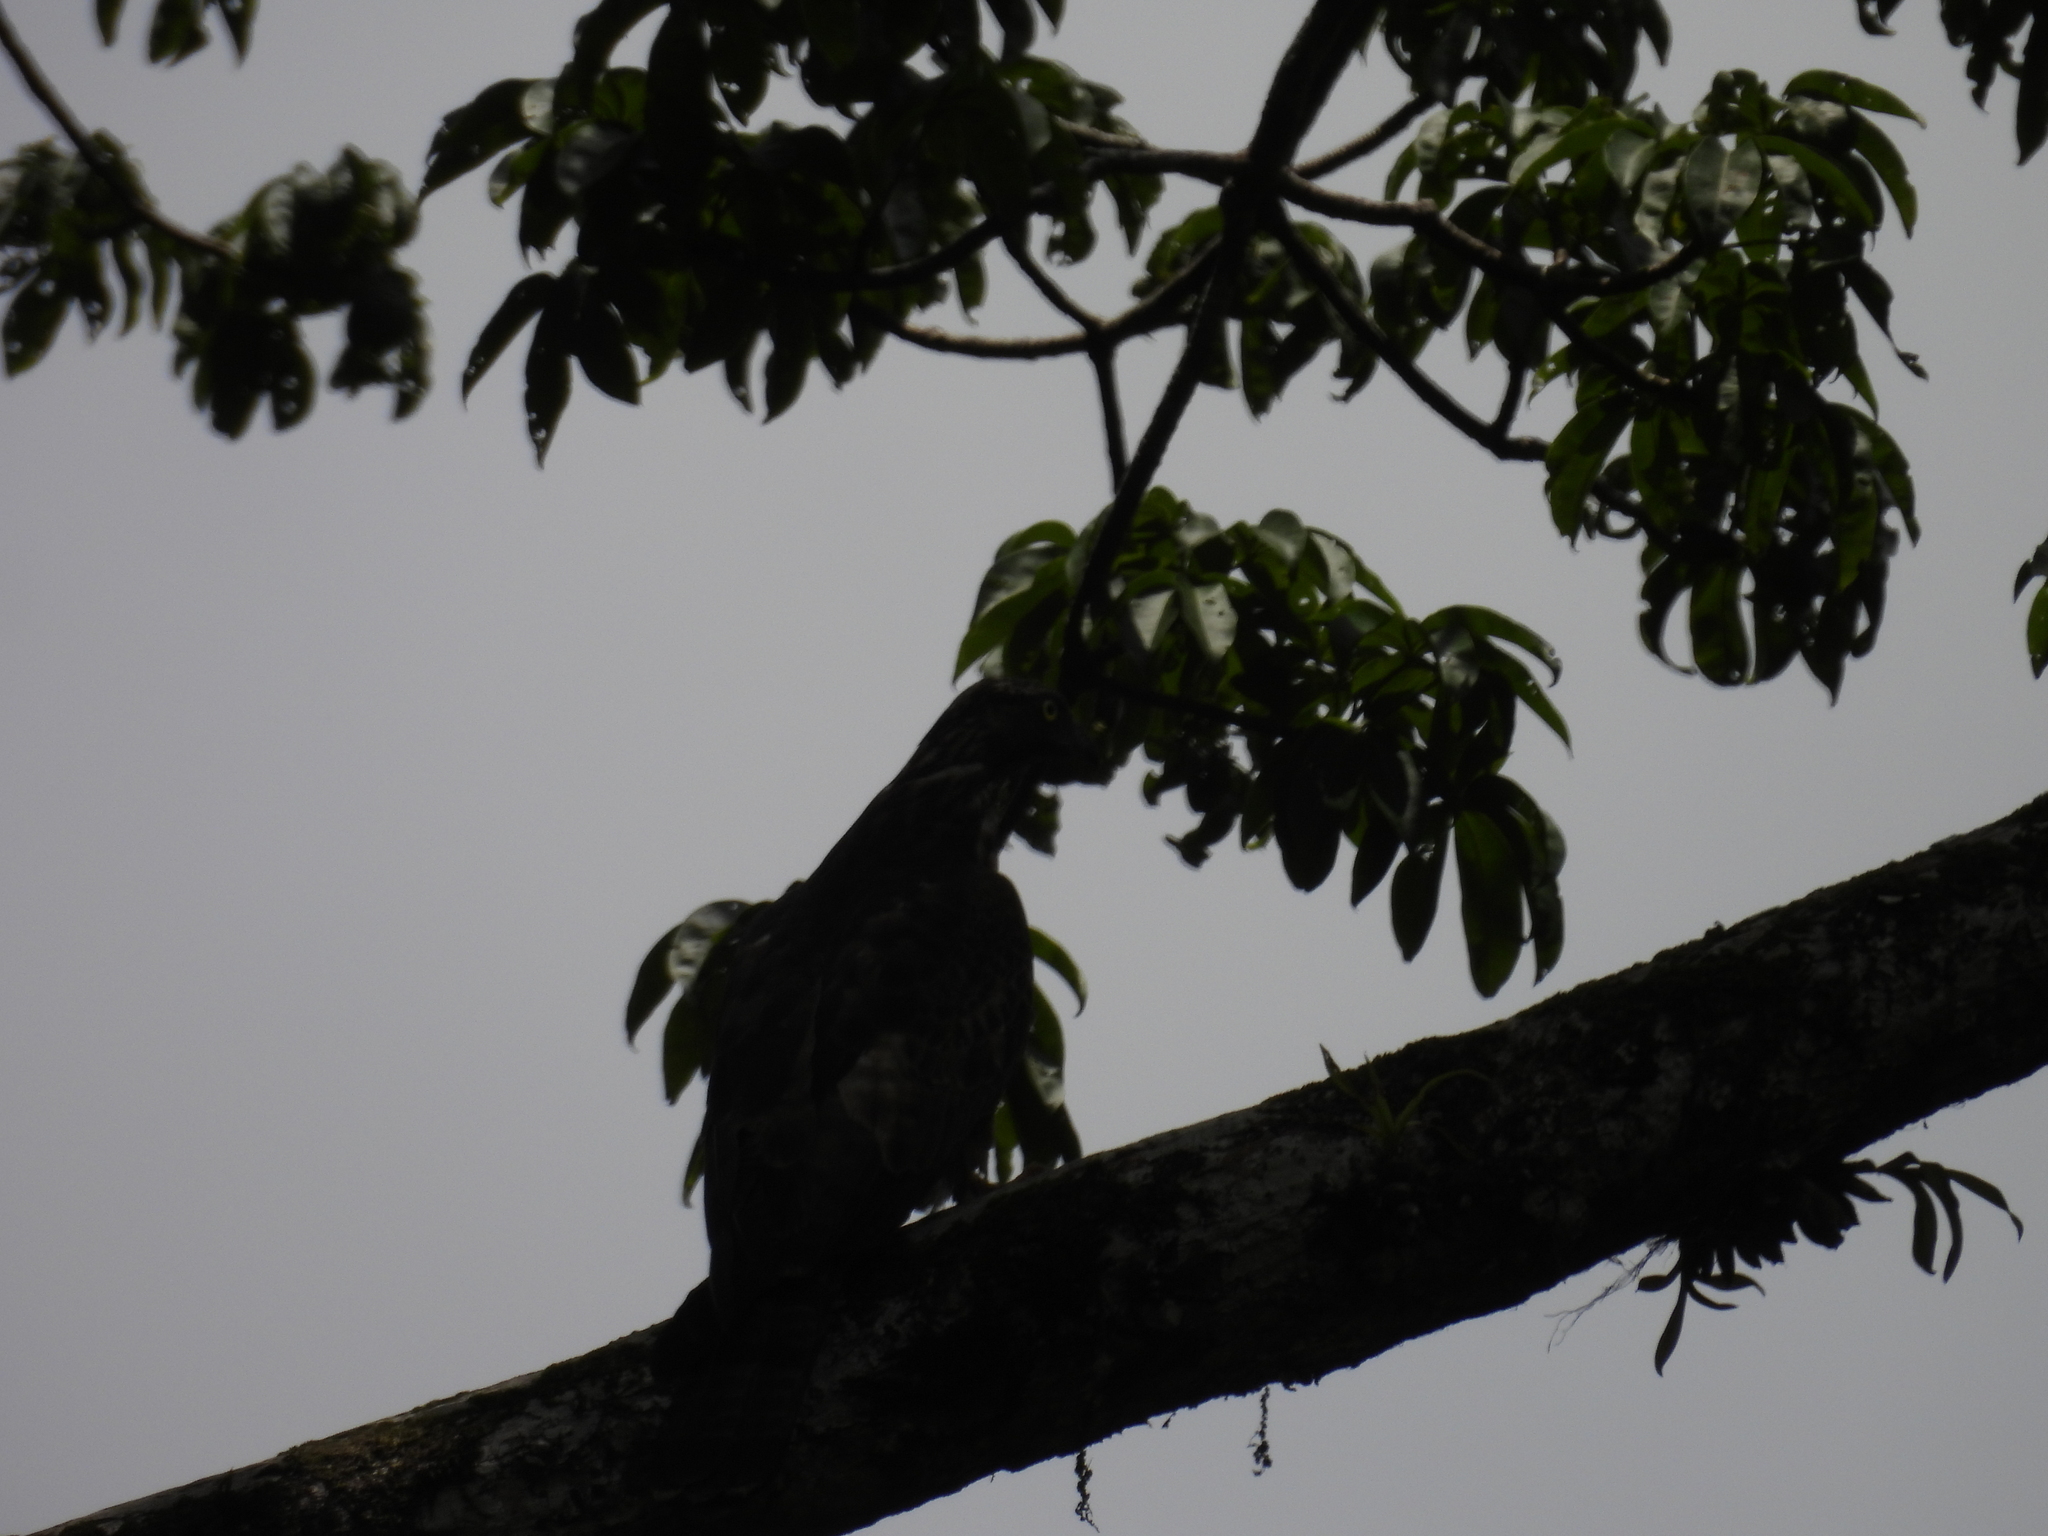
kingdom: Animalia
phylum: Chordata
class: Aves
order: Accipitriformes
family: Accipitridae
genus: Pernis
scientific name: Pernis ptilorhynchus
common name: Crested honey buzzard
